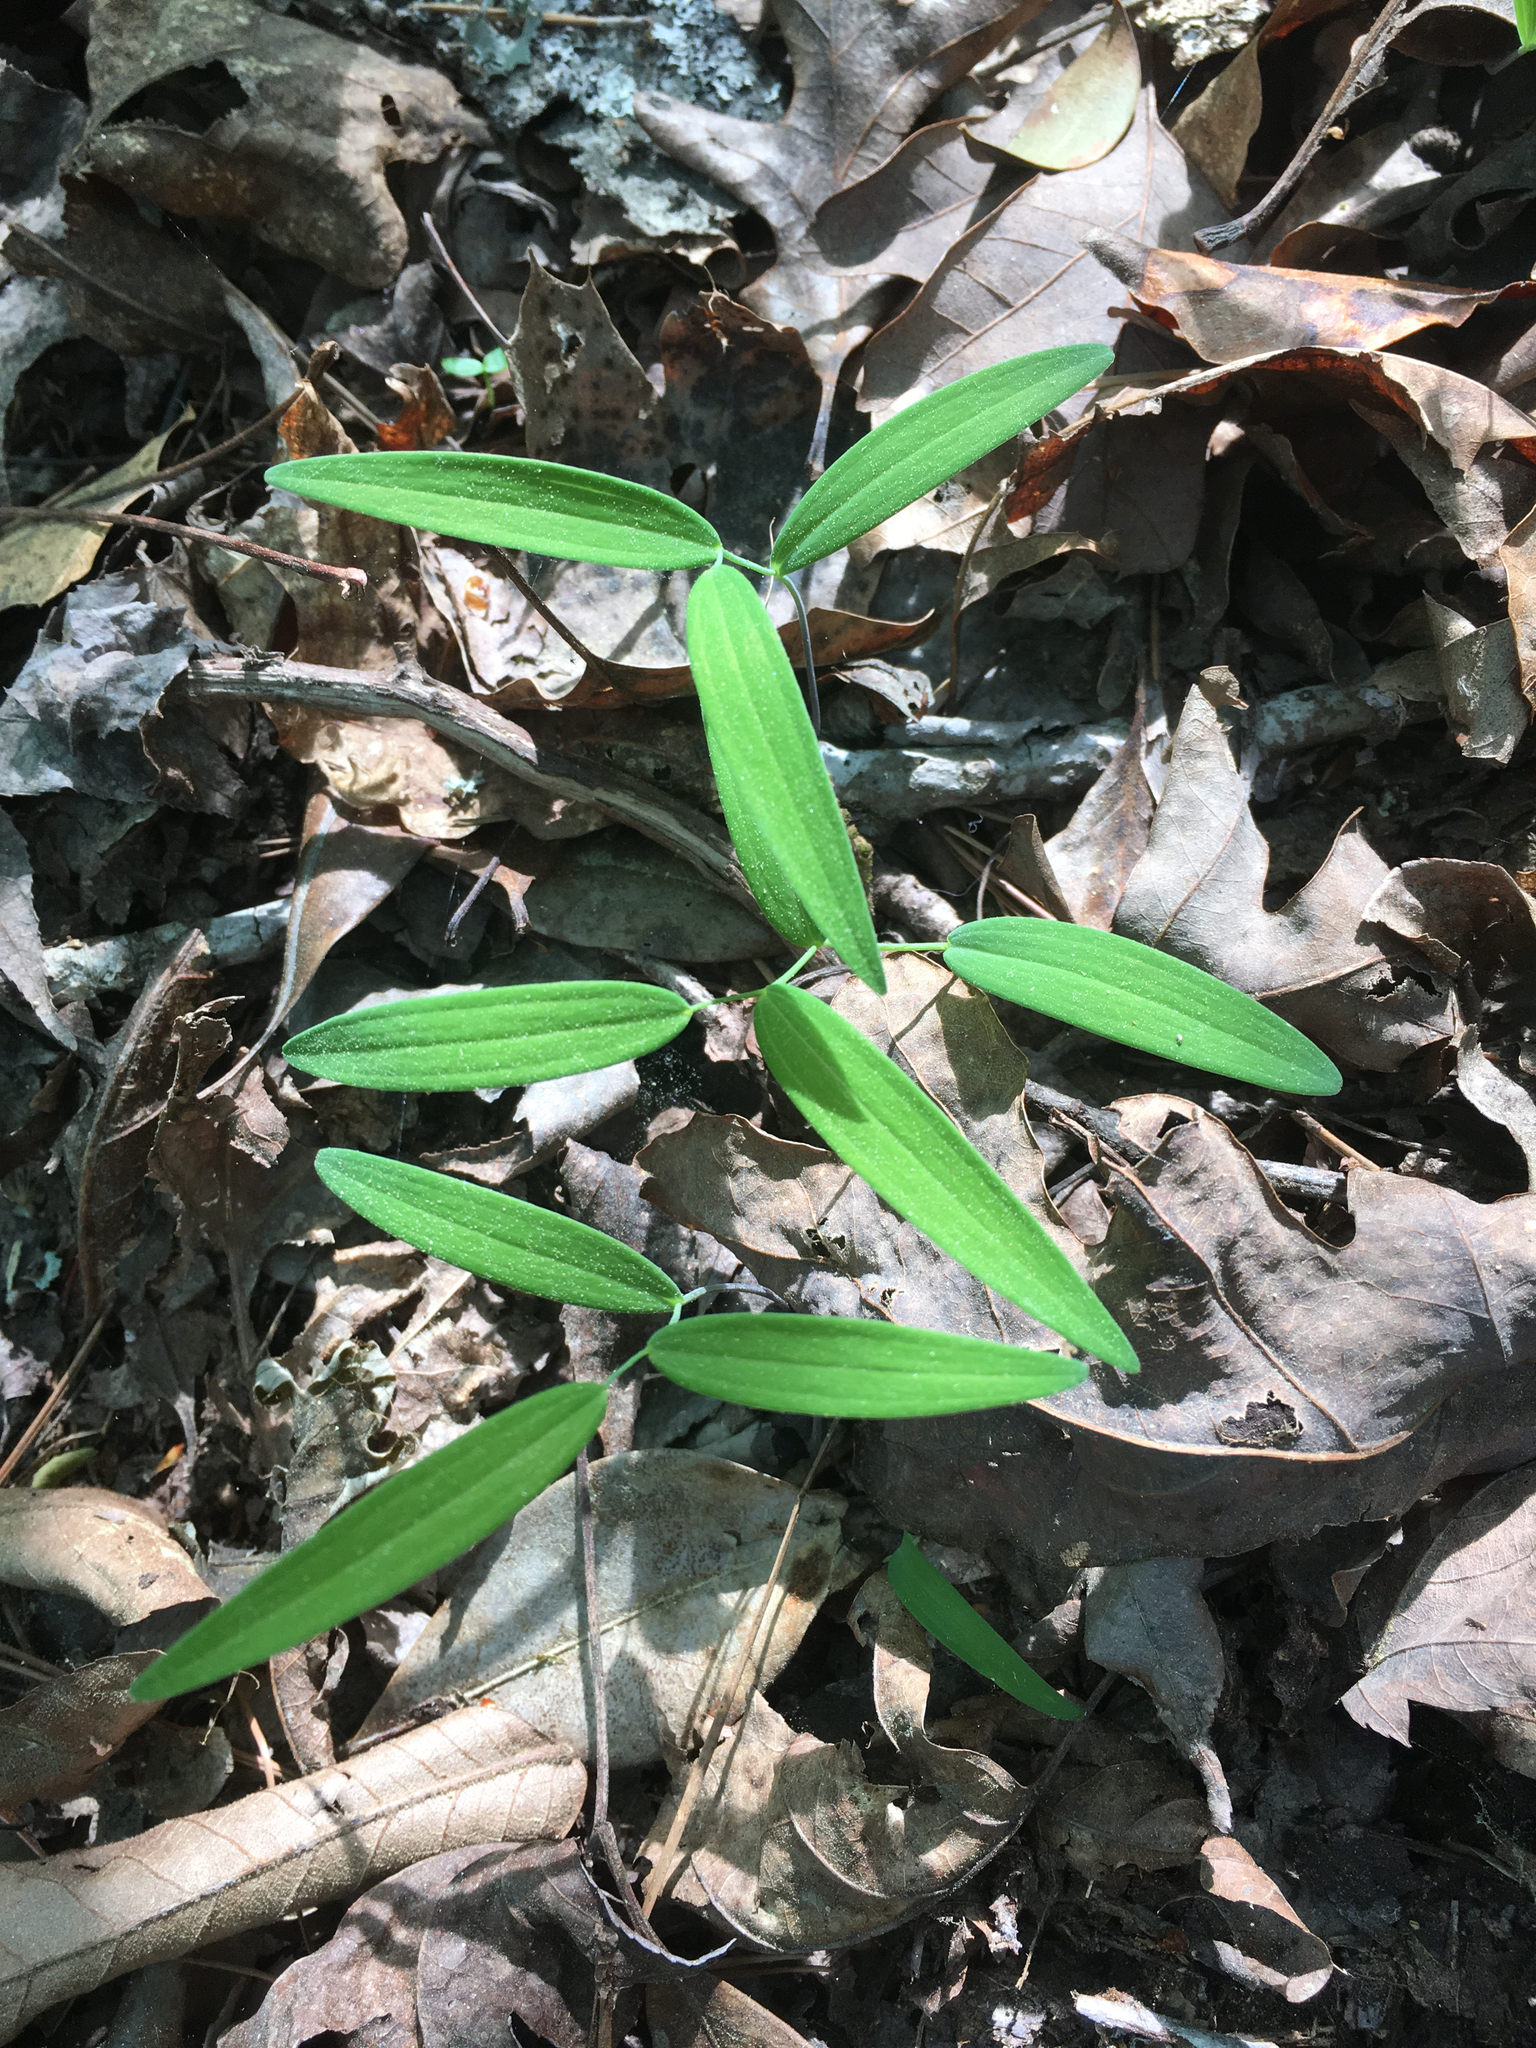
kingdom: Plantae
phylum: Tracheophyta
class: Liliopsida
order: Asparagales
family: Asparagaceae
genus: Polygonatum
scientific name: Polygonatum biflorum
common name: American solomon's-seal
